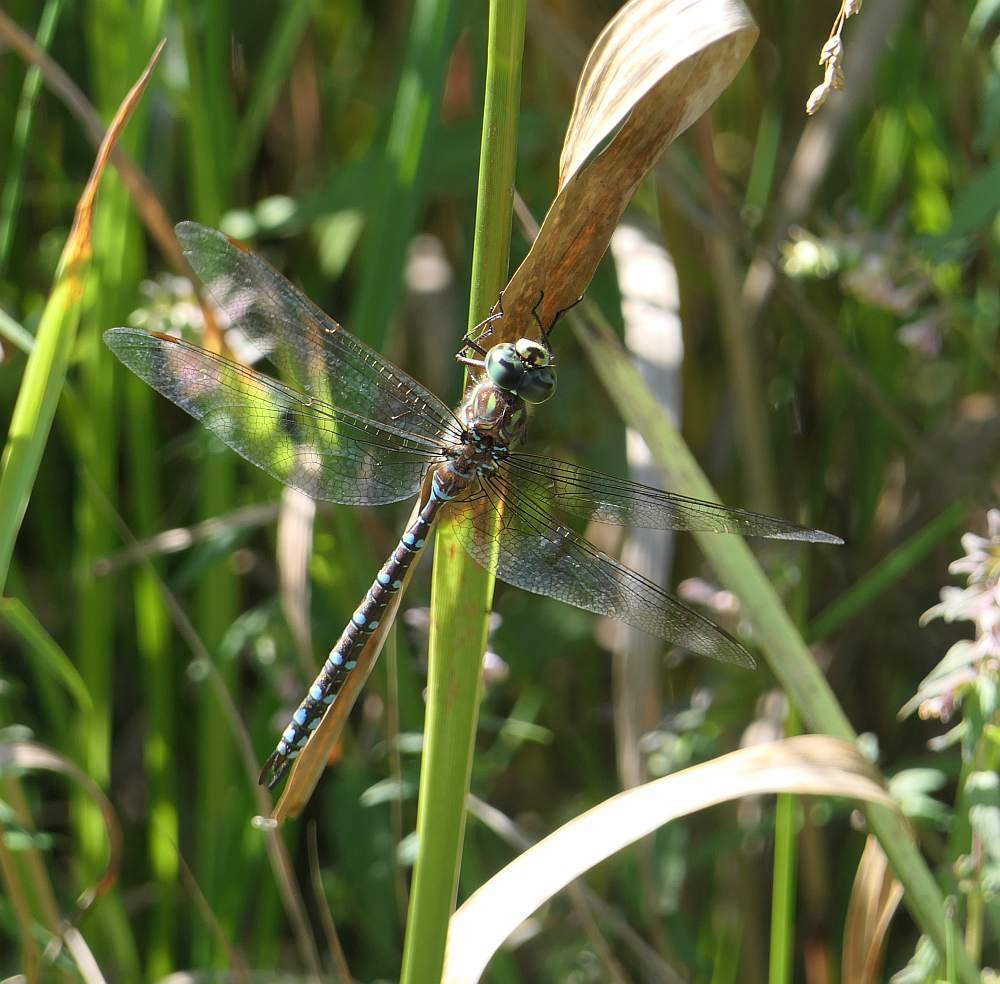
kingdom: Animalia
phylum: Arthropoda
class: Insecta
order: Odonata
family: Aeshnidae
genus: Aeshna
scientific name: Aeshna canadensis
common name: Canada darner
